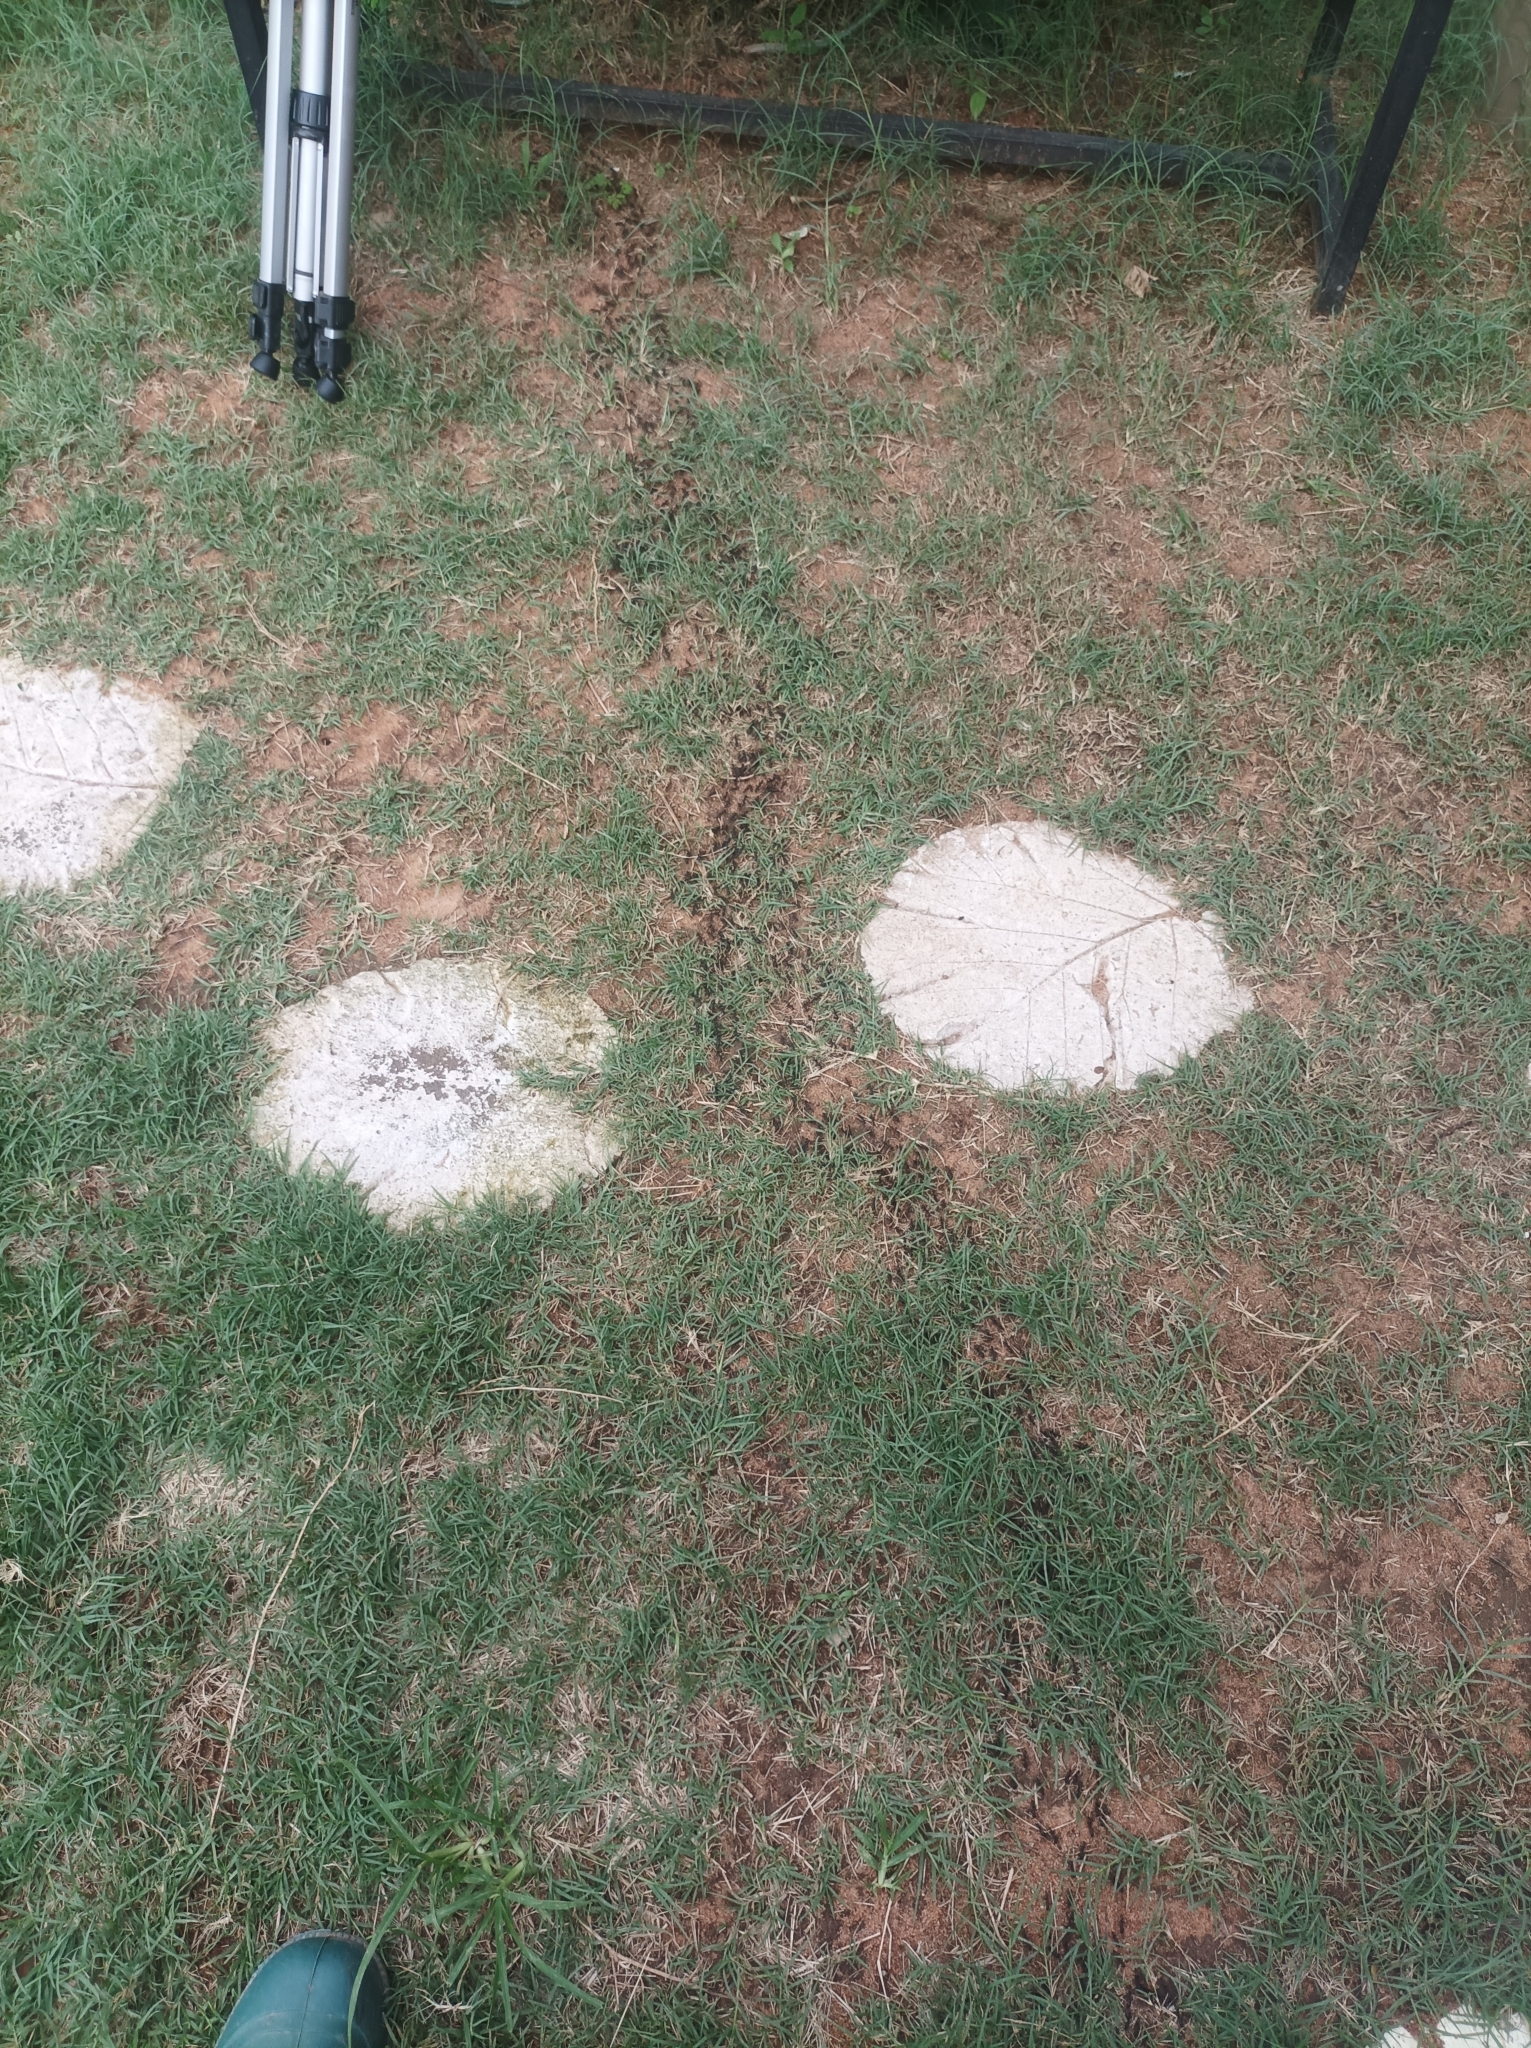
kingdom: Animalia
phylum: Arthropoda
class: Insecta
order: Hymenoptera
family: Formicidae
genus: Megaponera
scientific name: Megaponera analis
